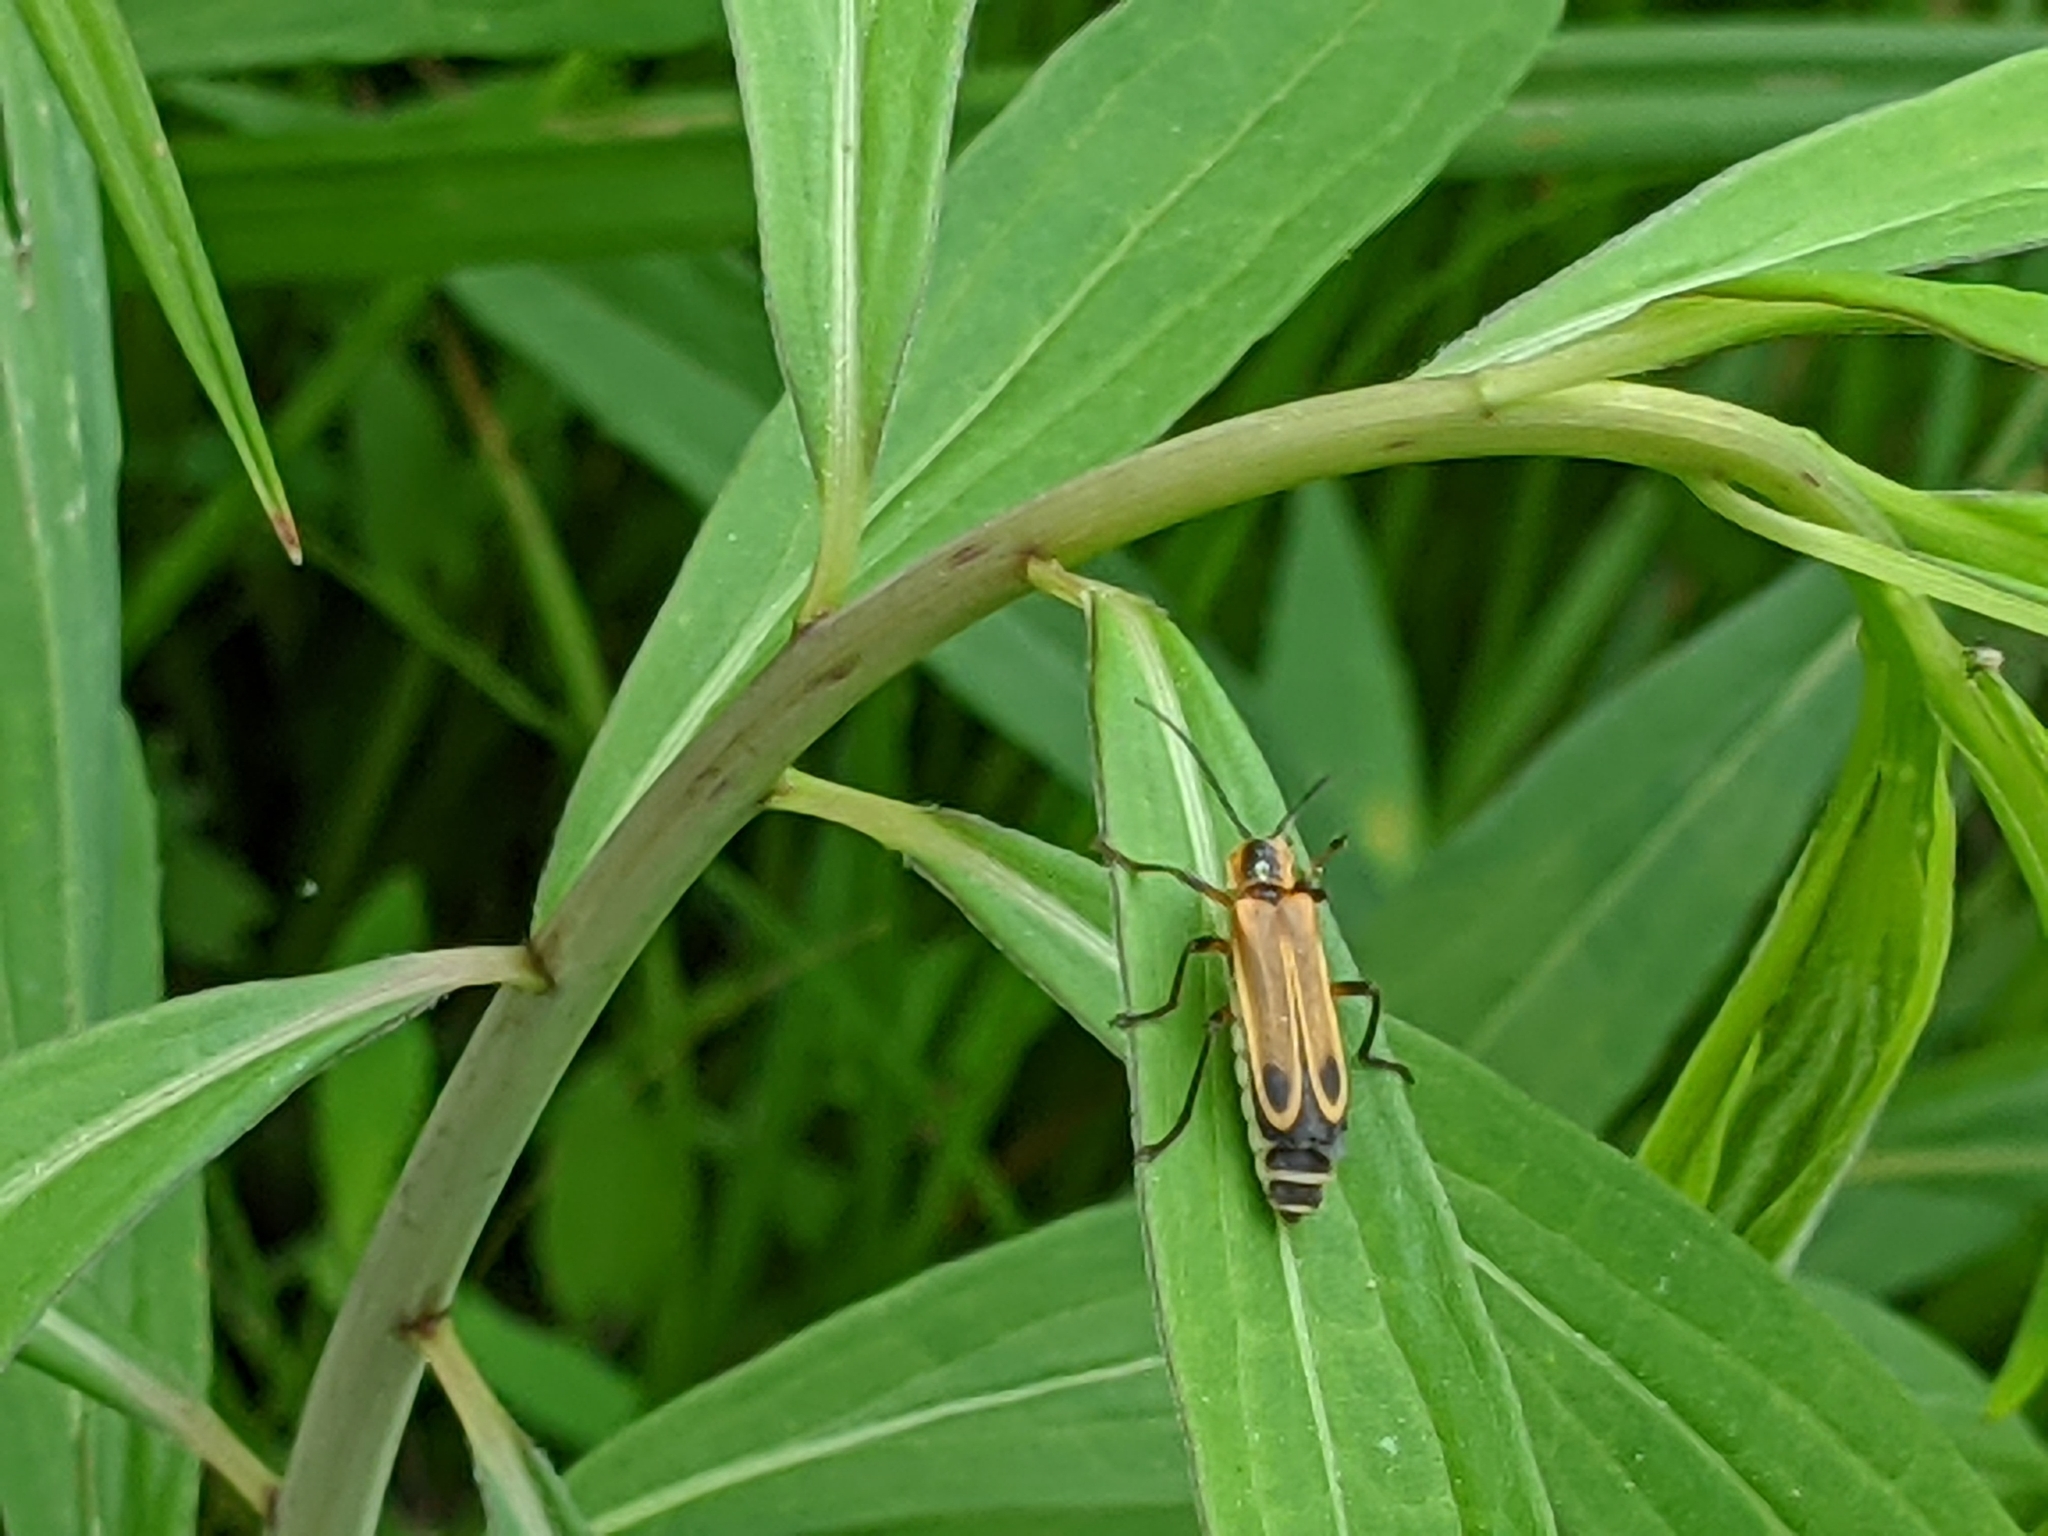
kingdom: Animalia
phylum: Arthropoda
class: Insecta
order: Coleoptera
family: Cantharidae
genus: Chauliognathus
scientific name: Chauliognathus marginatus
